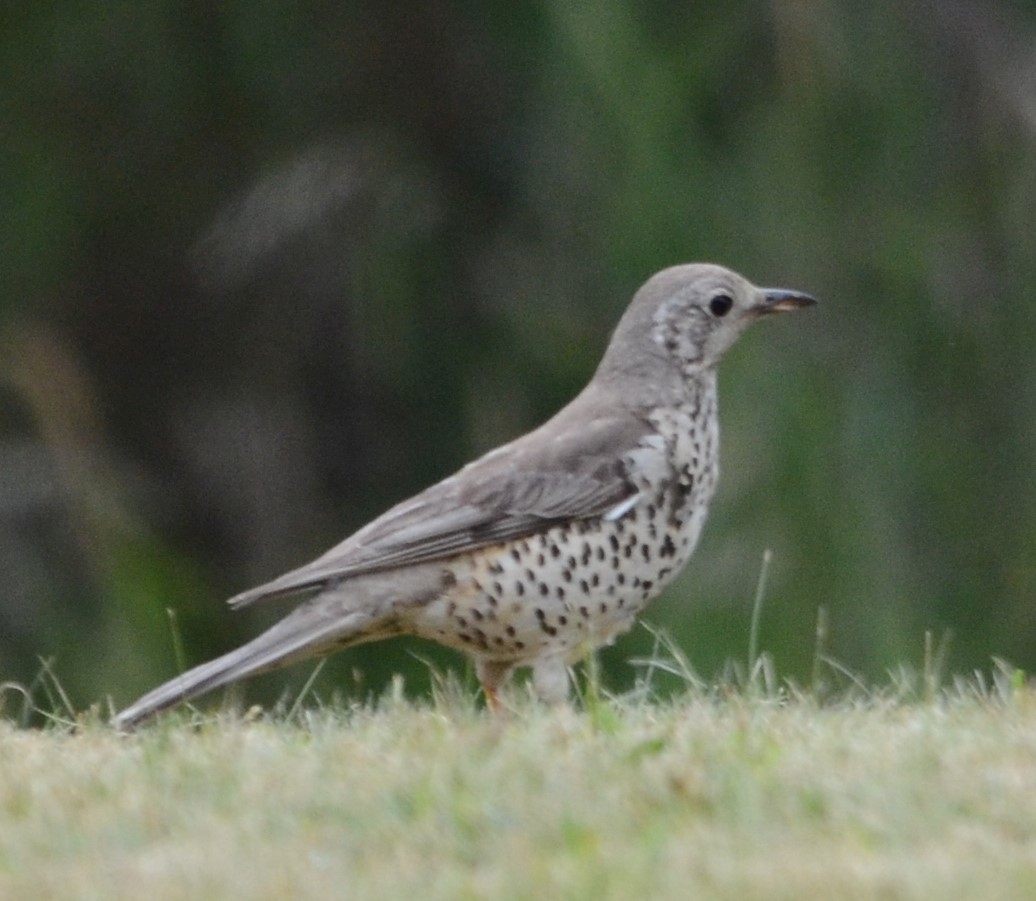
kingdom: Animalia
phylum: Chordata
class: Aves
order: Passeriformes
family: Turdidae
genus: Turdus
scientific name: Turdus viscivorus
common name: Mistle thrush
